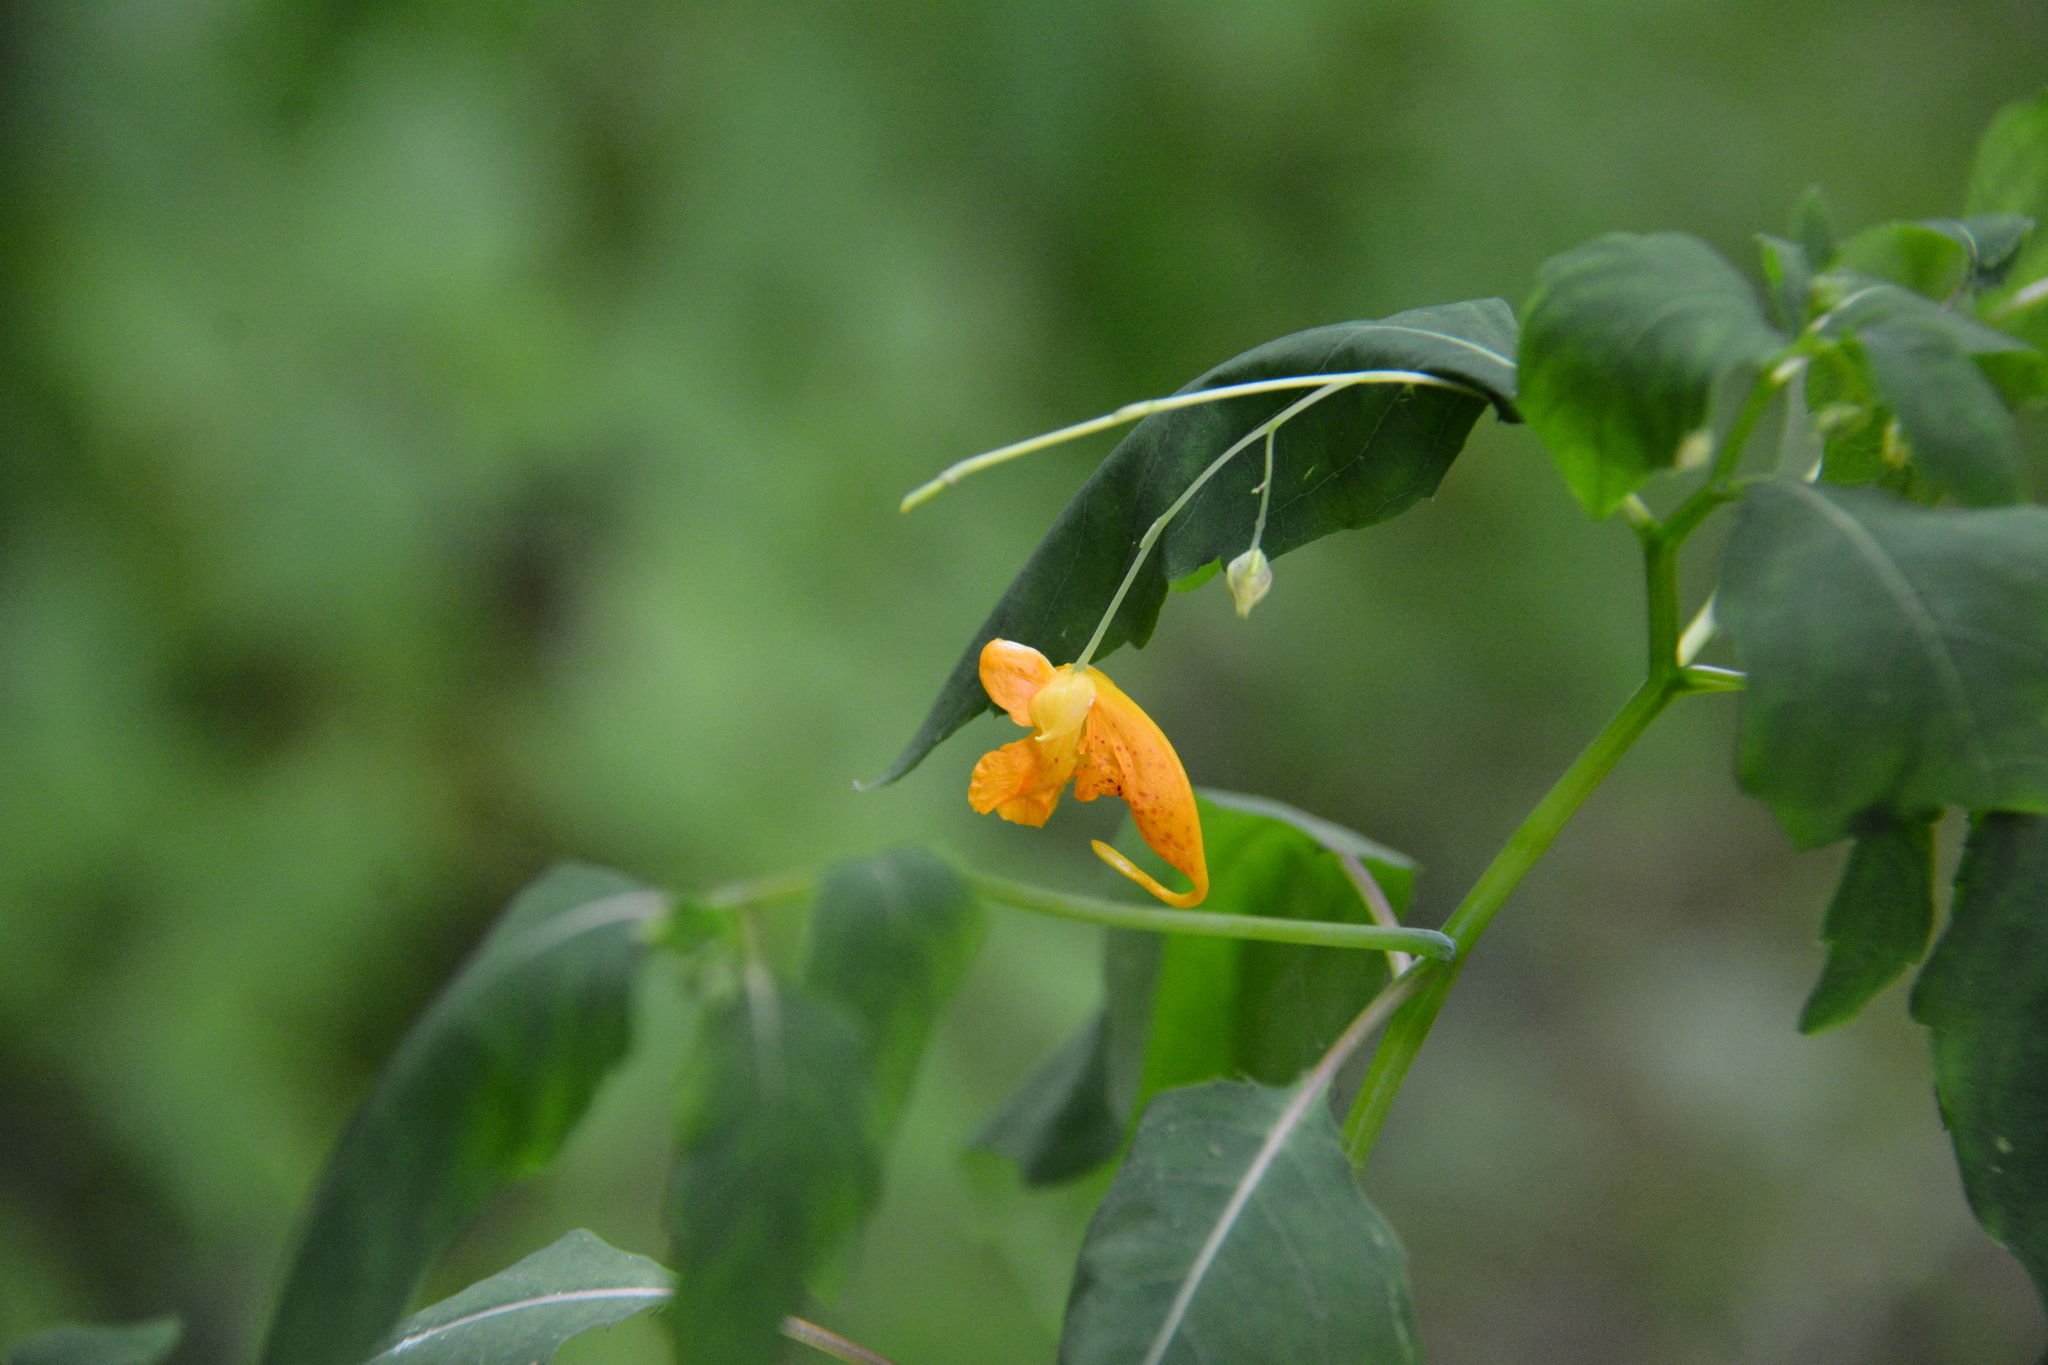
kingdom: Plantae
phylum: Tracheophyta
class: Magnoliopsida
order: Ericales
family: Balsaminaceae
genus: Impatiens
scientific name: Impatiens capensis
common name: Orange balsam
